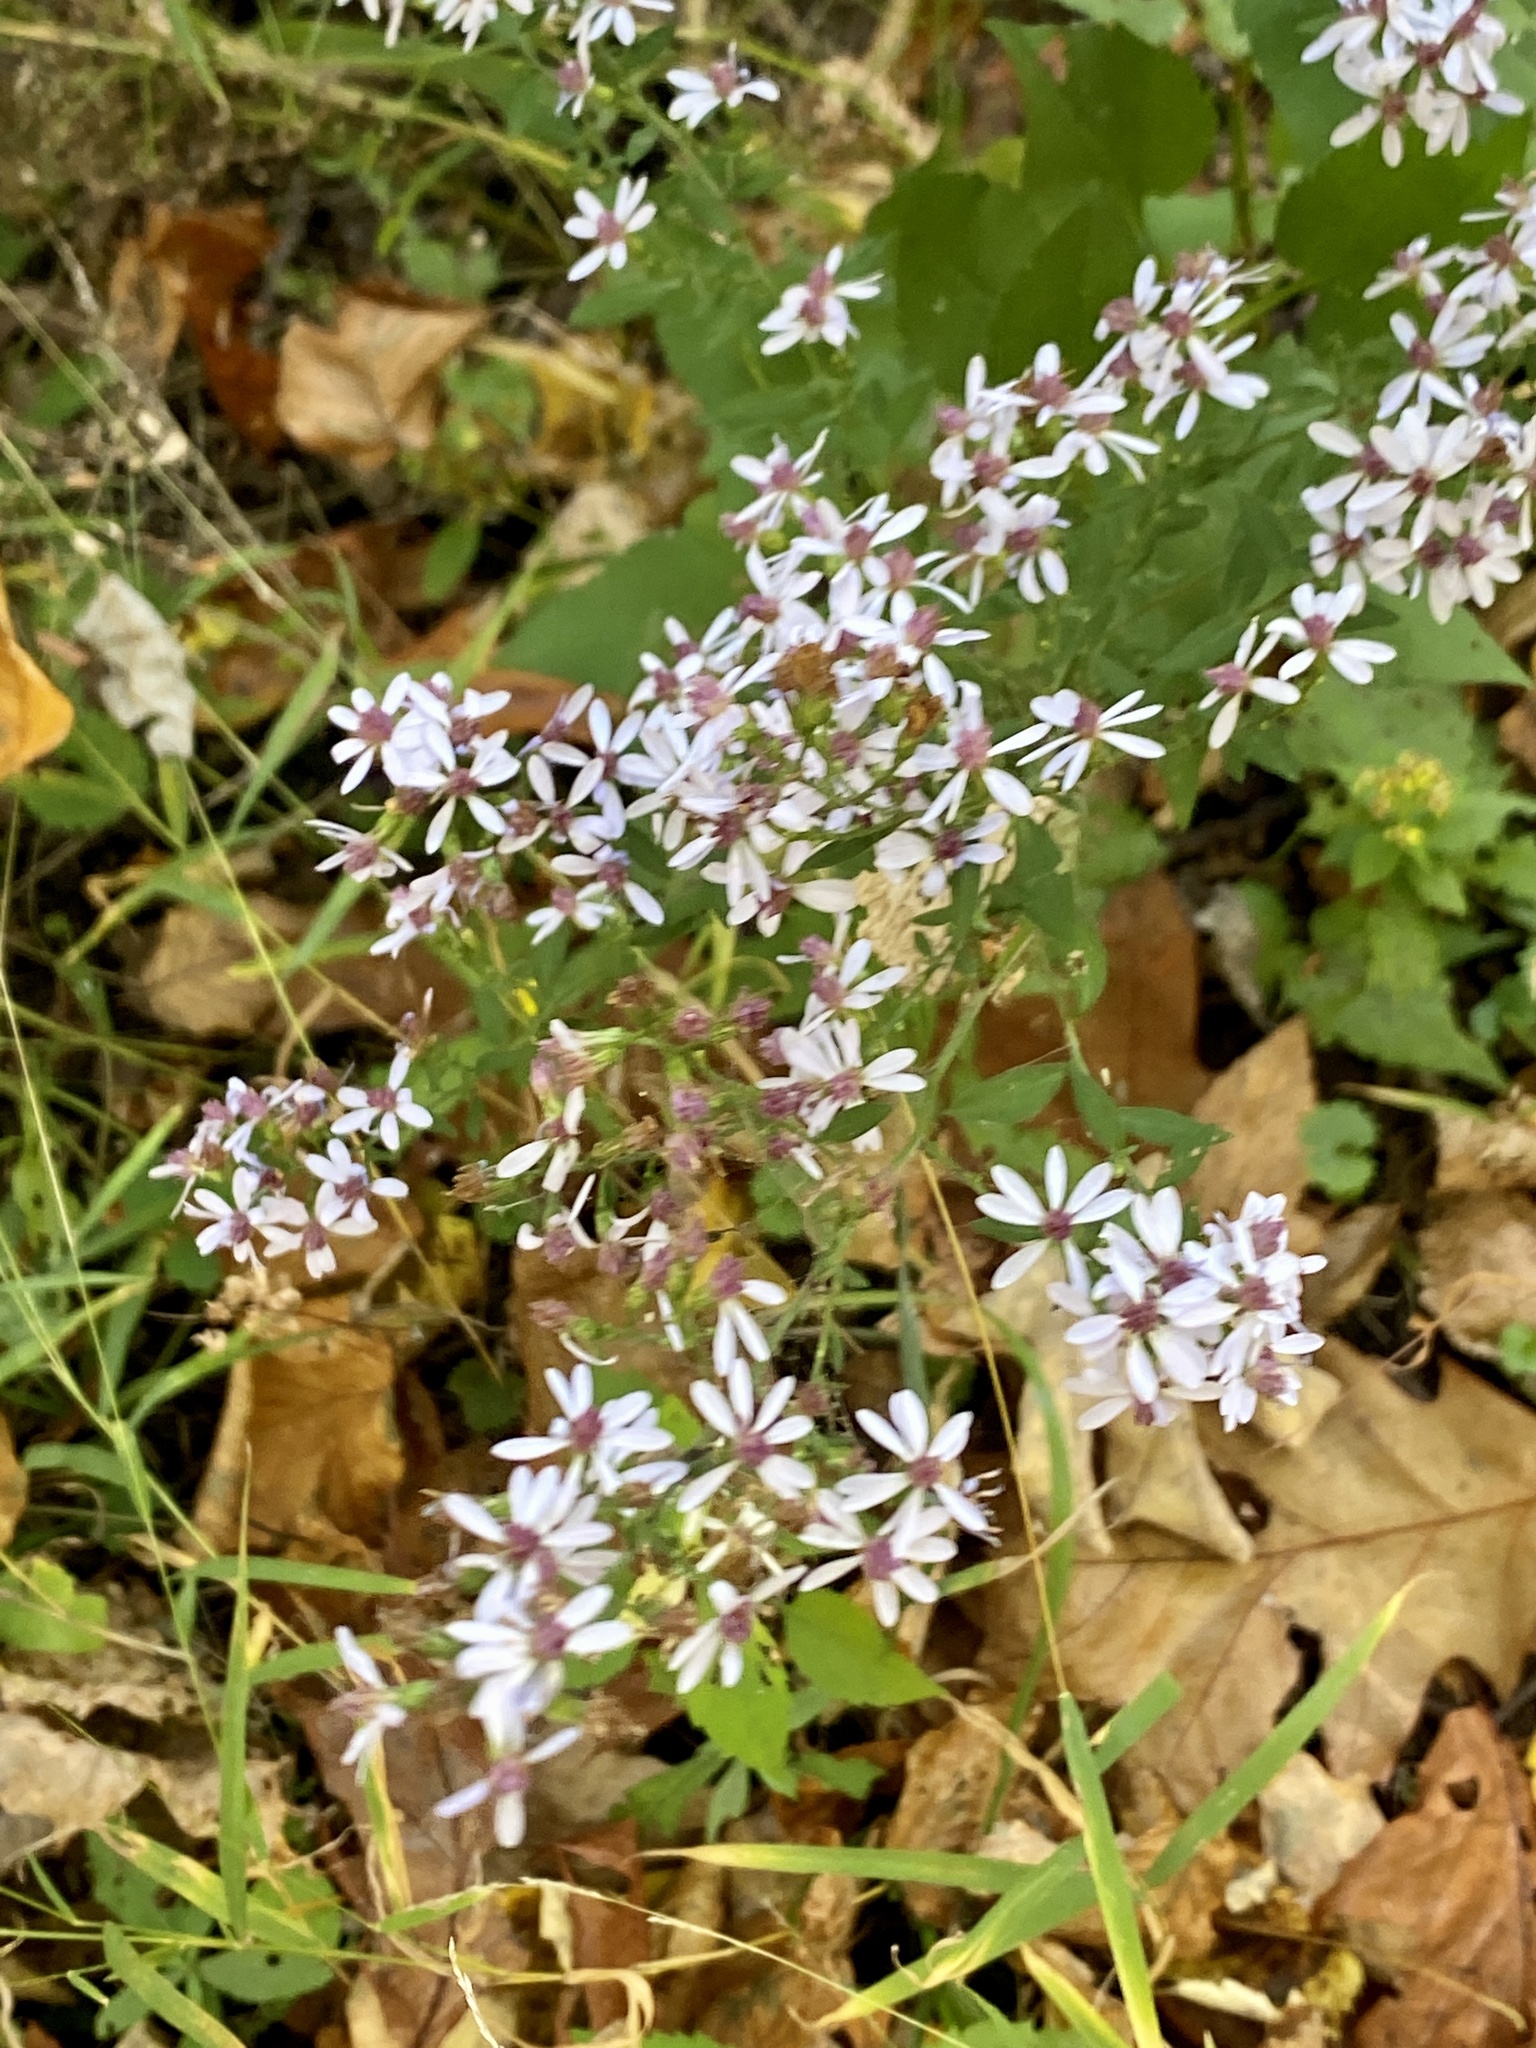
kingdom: Plantae
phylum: Tracheophyta
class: Magnoliopsida
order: Asterales
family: Asteraceae
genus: Symphyotrichum
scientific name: Symphyotrichum cordifolium
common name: Beeweed
